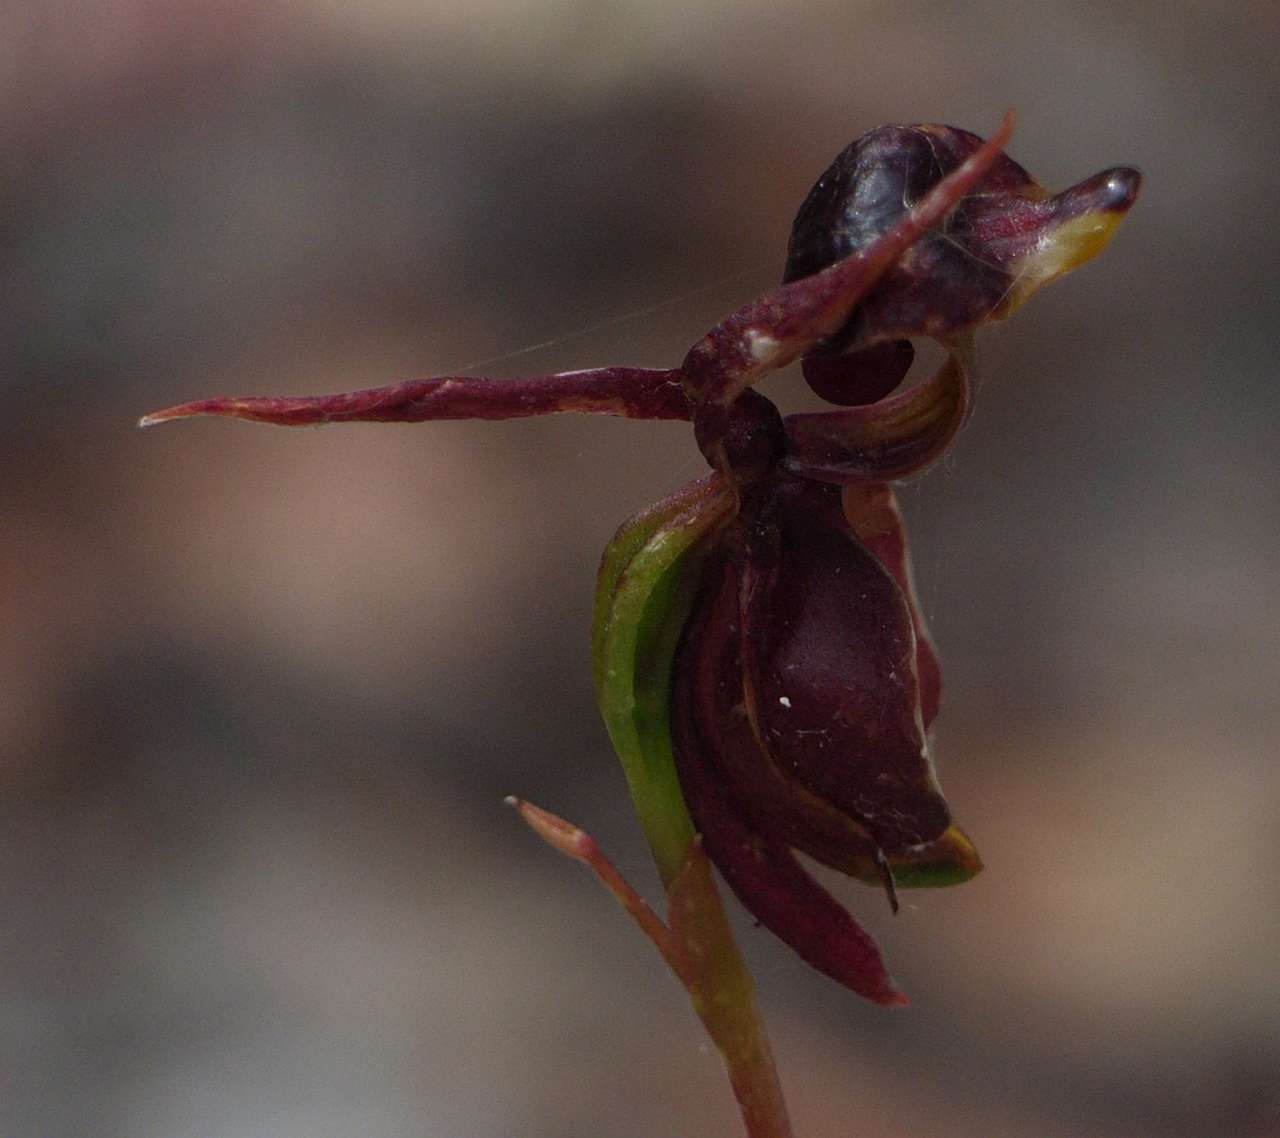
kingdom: Plantae
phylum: Tracheophyta
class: Liliopsida
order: Asparagales
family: Orchidaceae
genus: Caleana
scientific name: Caleana major
